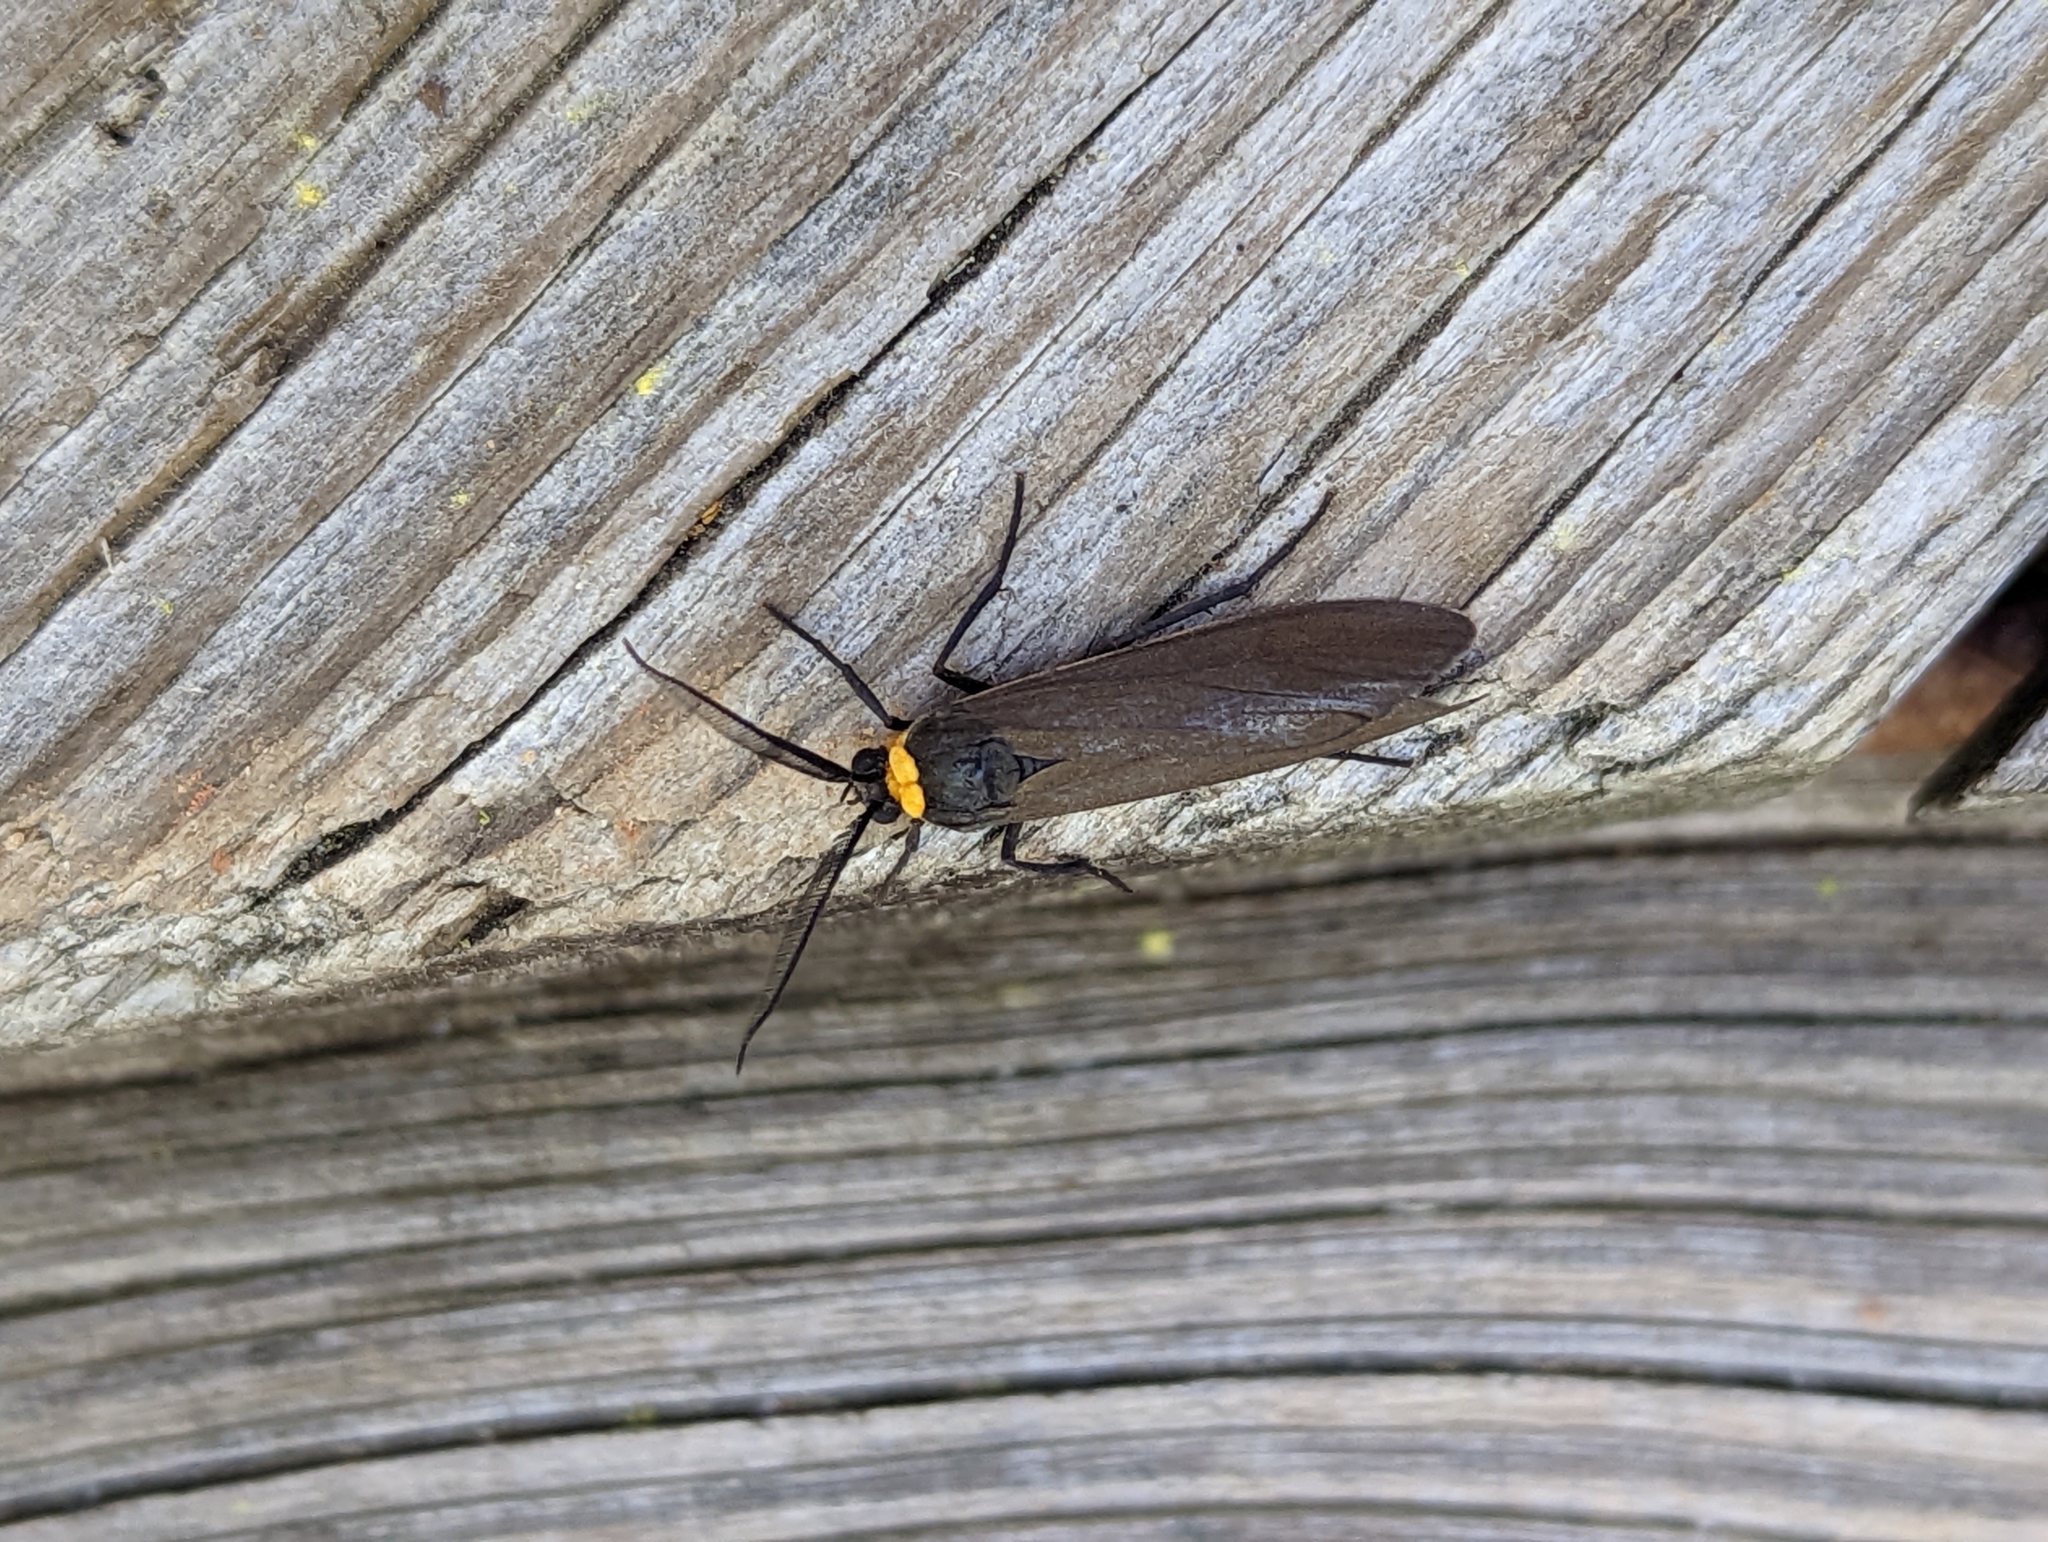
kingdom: Animalia
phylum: Arthropoda
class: Insecta
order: Lepidoptera
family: Erebidae
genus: Cisseps
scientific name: Cisseps fulvicollis
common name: Yellow-collared scape moth
